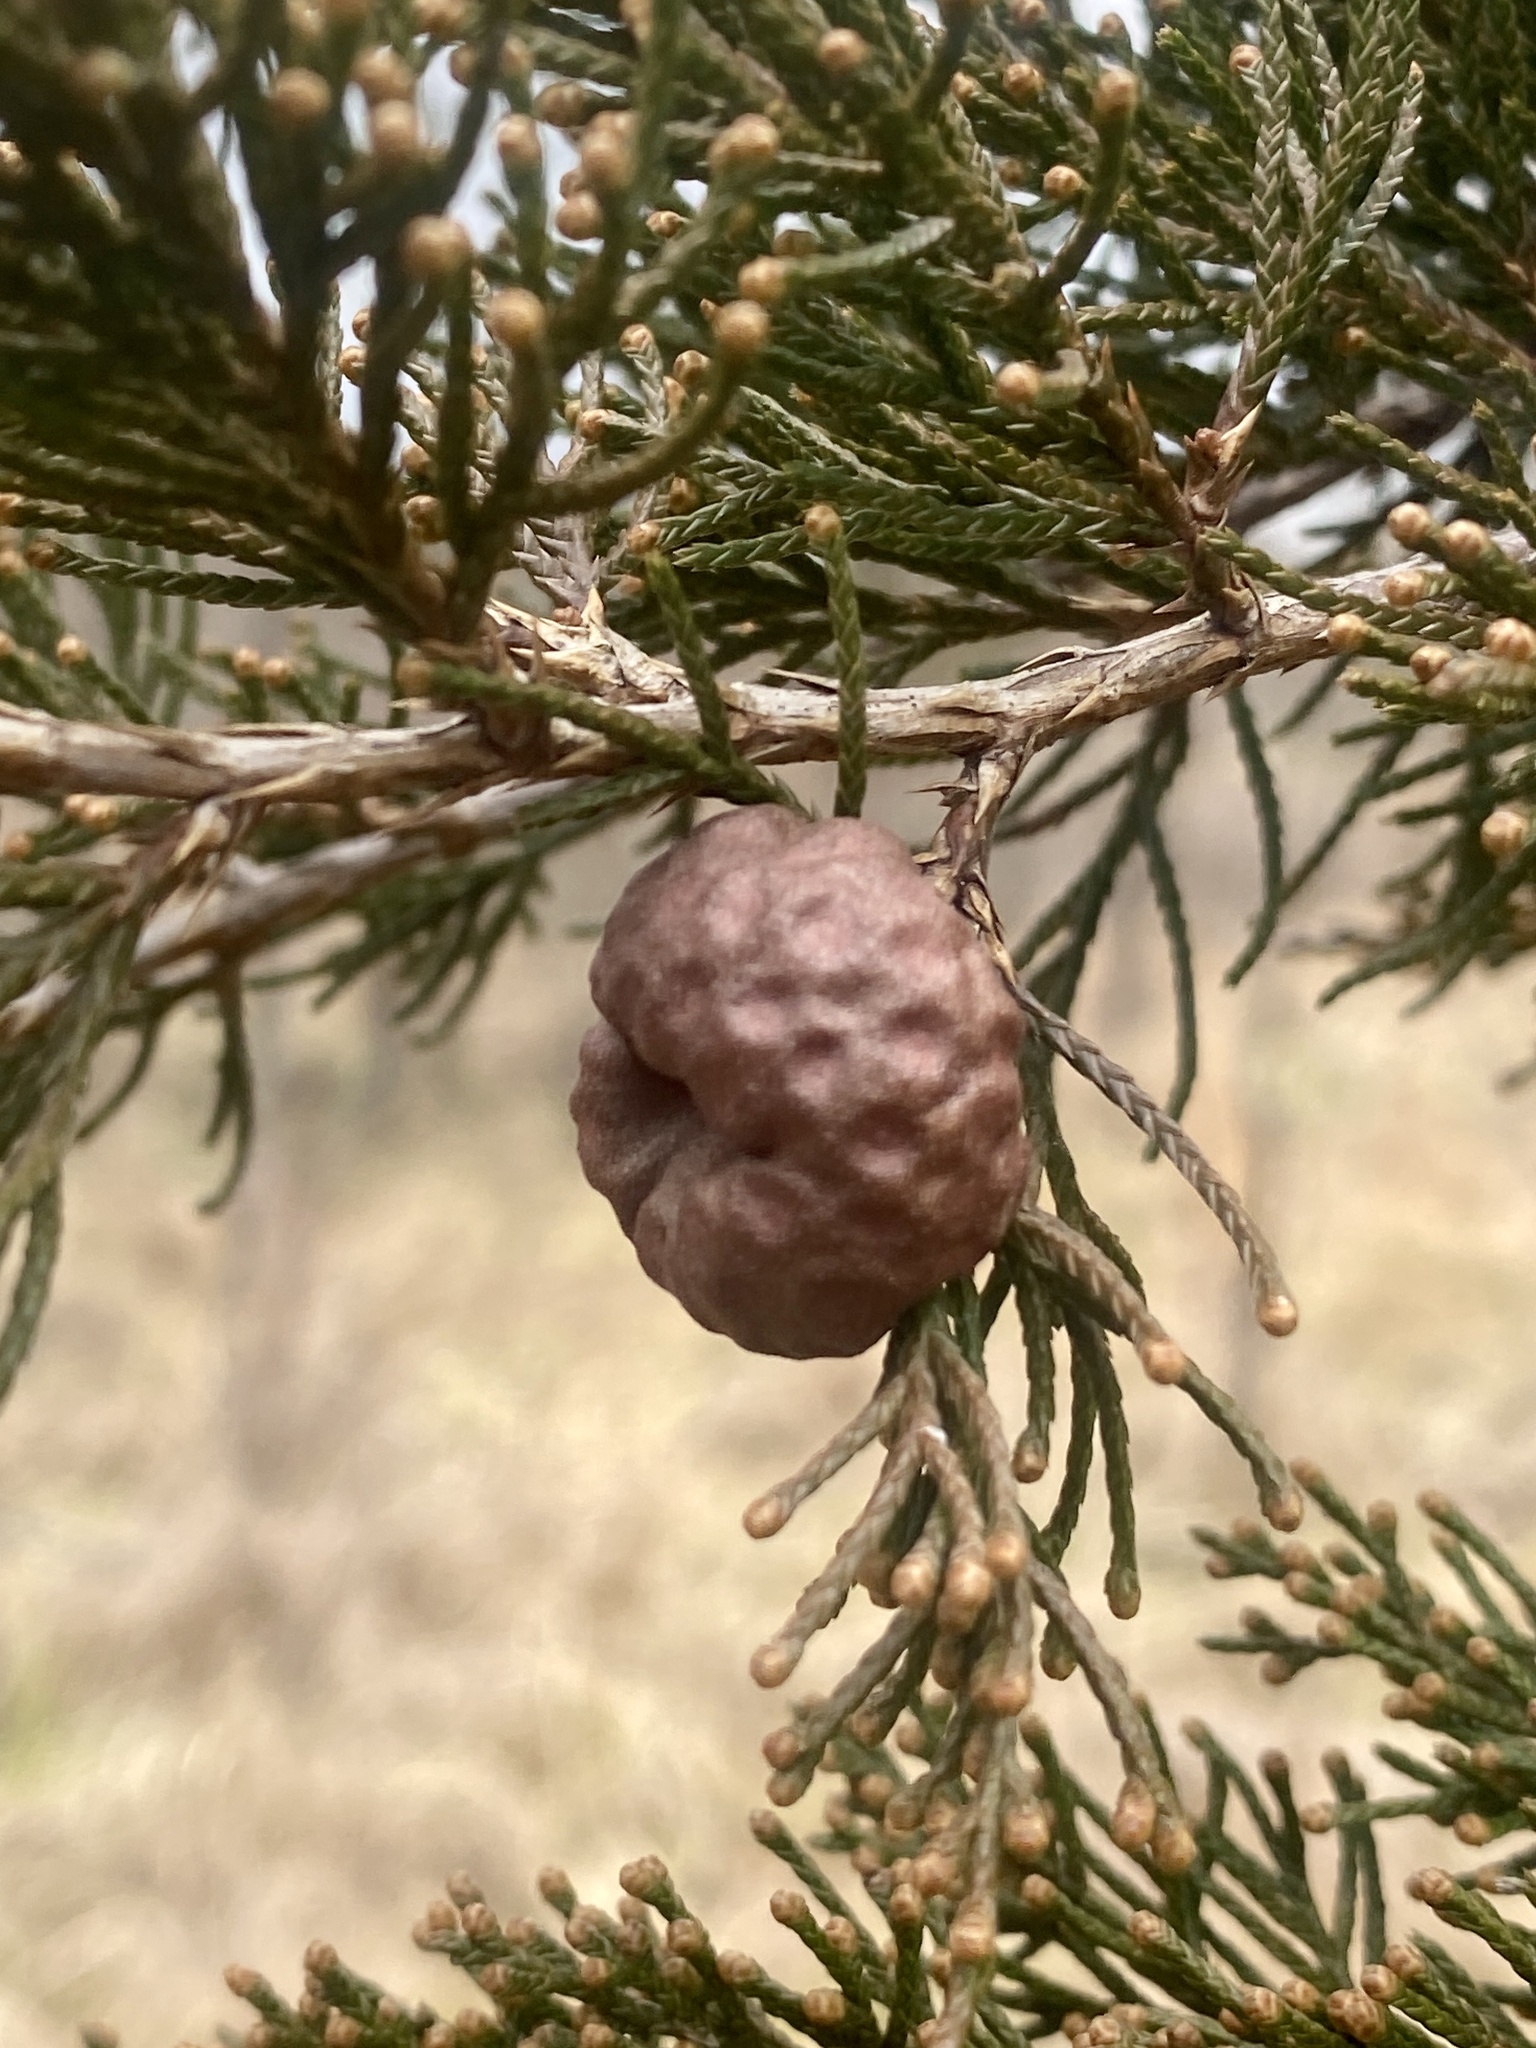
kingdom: Fungi
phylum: Basidiomycota
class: Pucciniomycetes
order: Pucciniales
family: Gymnosporangiaceae
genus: Gymnosporangium
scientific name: Gymnosporangium juniperi-virginianae
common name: Juniper-apple rust
